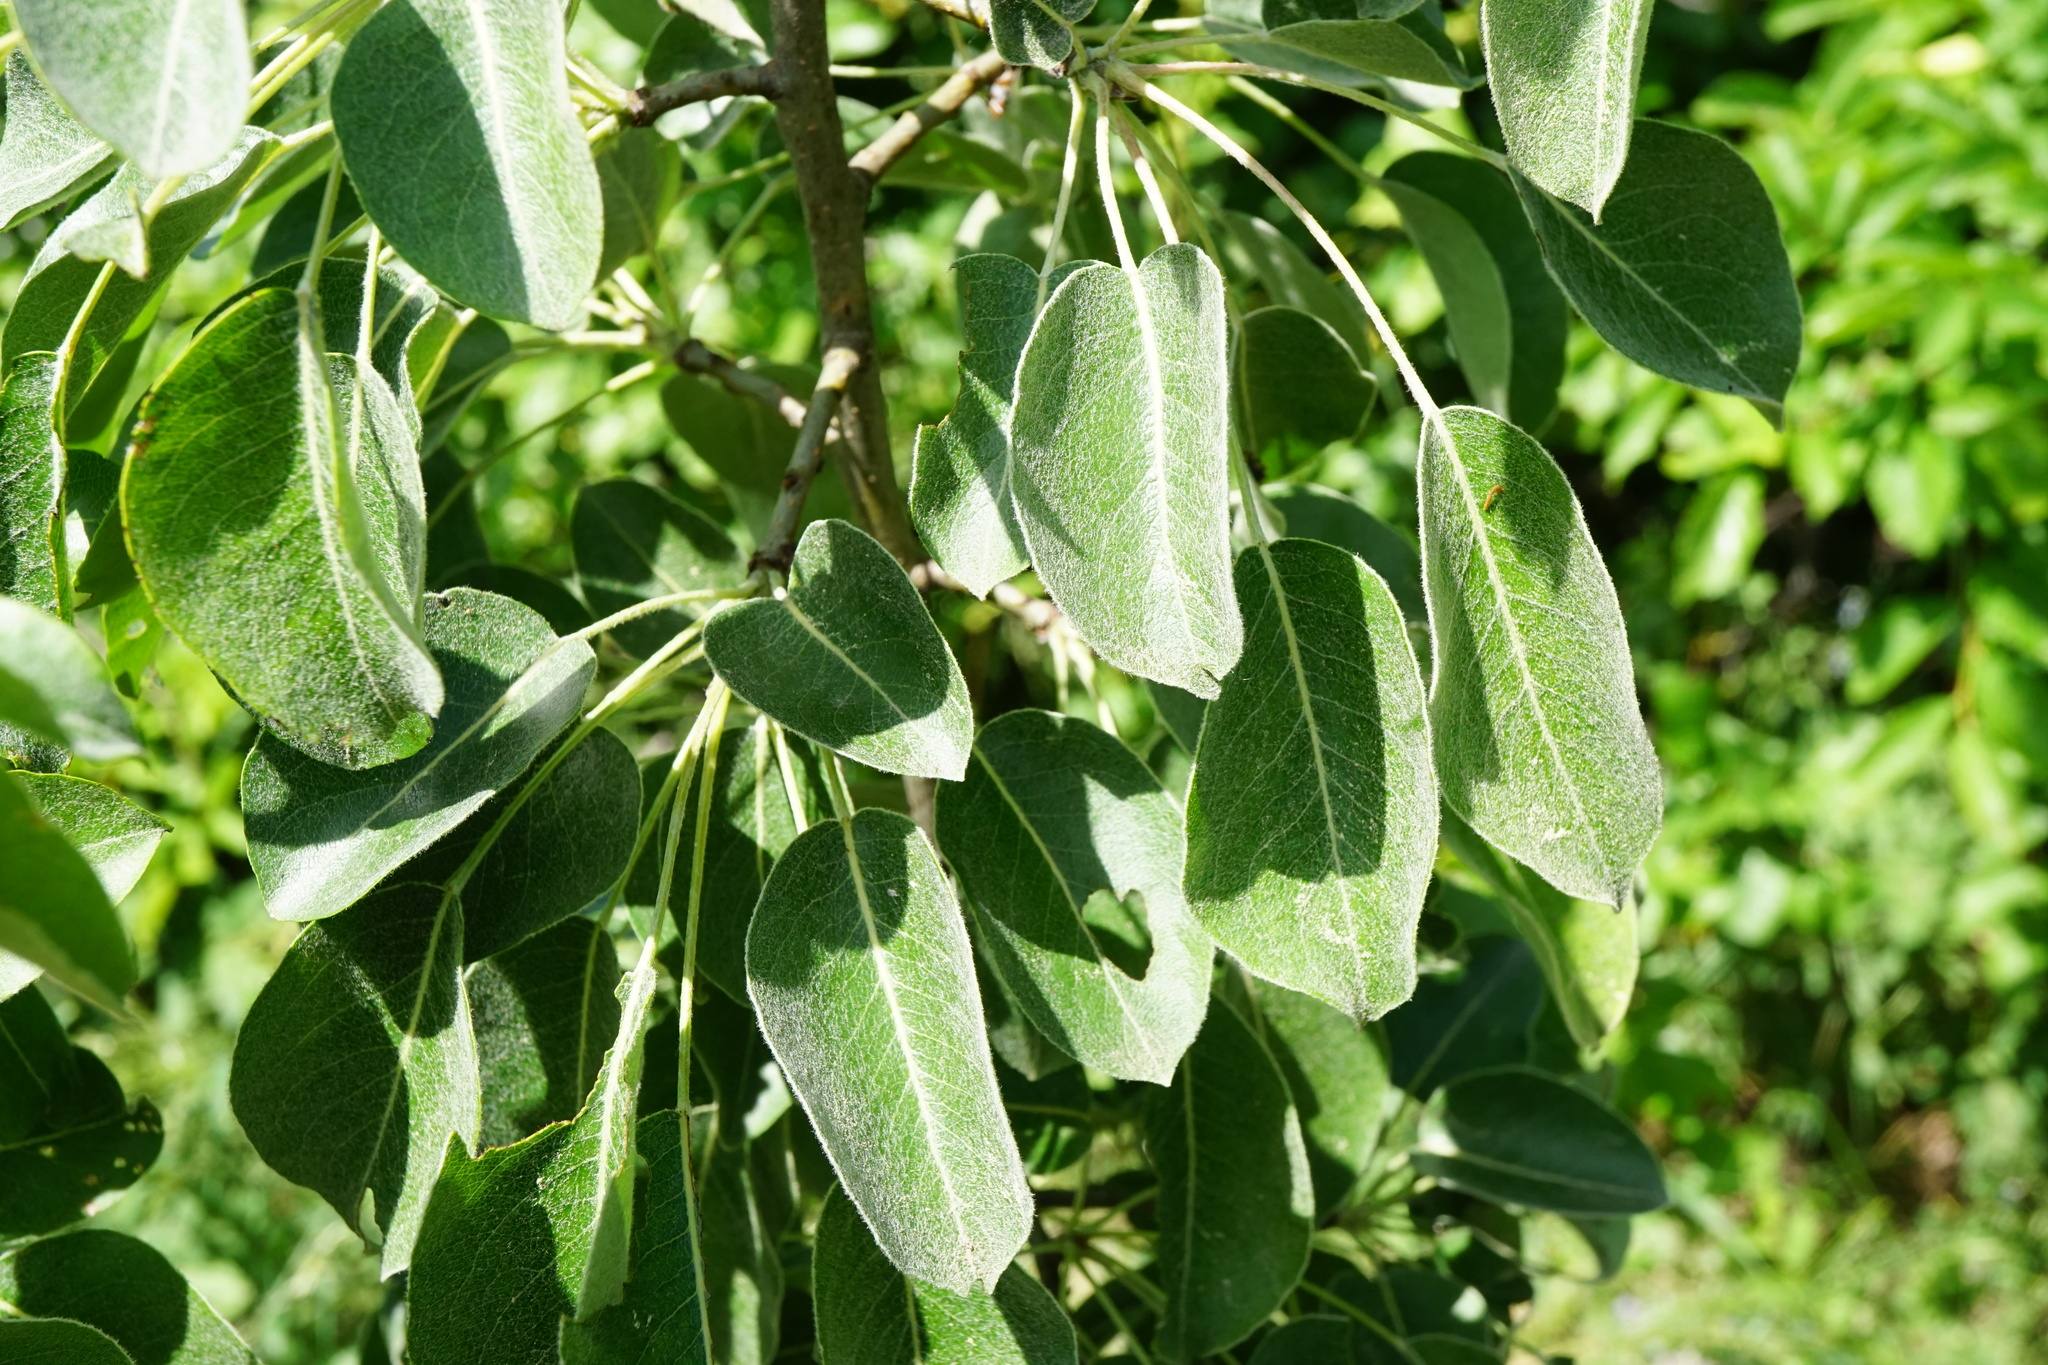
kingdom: Plantae
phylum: Tracheophyta
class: Magnoliopsida
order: Rosales
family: Rosaceae
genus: Pyrus
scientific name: Pyrus nivalis
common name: Snow pear
